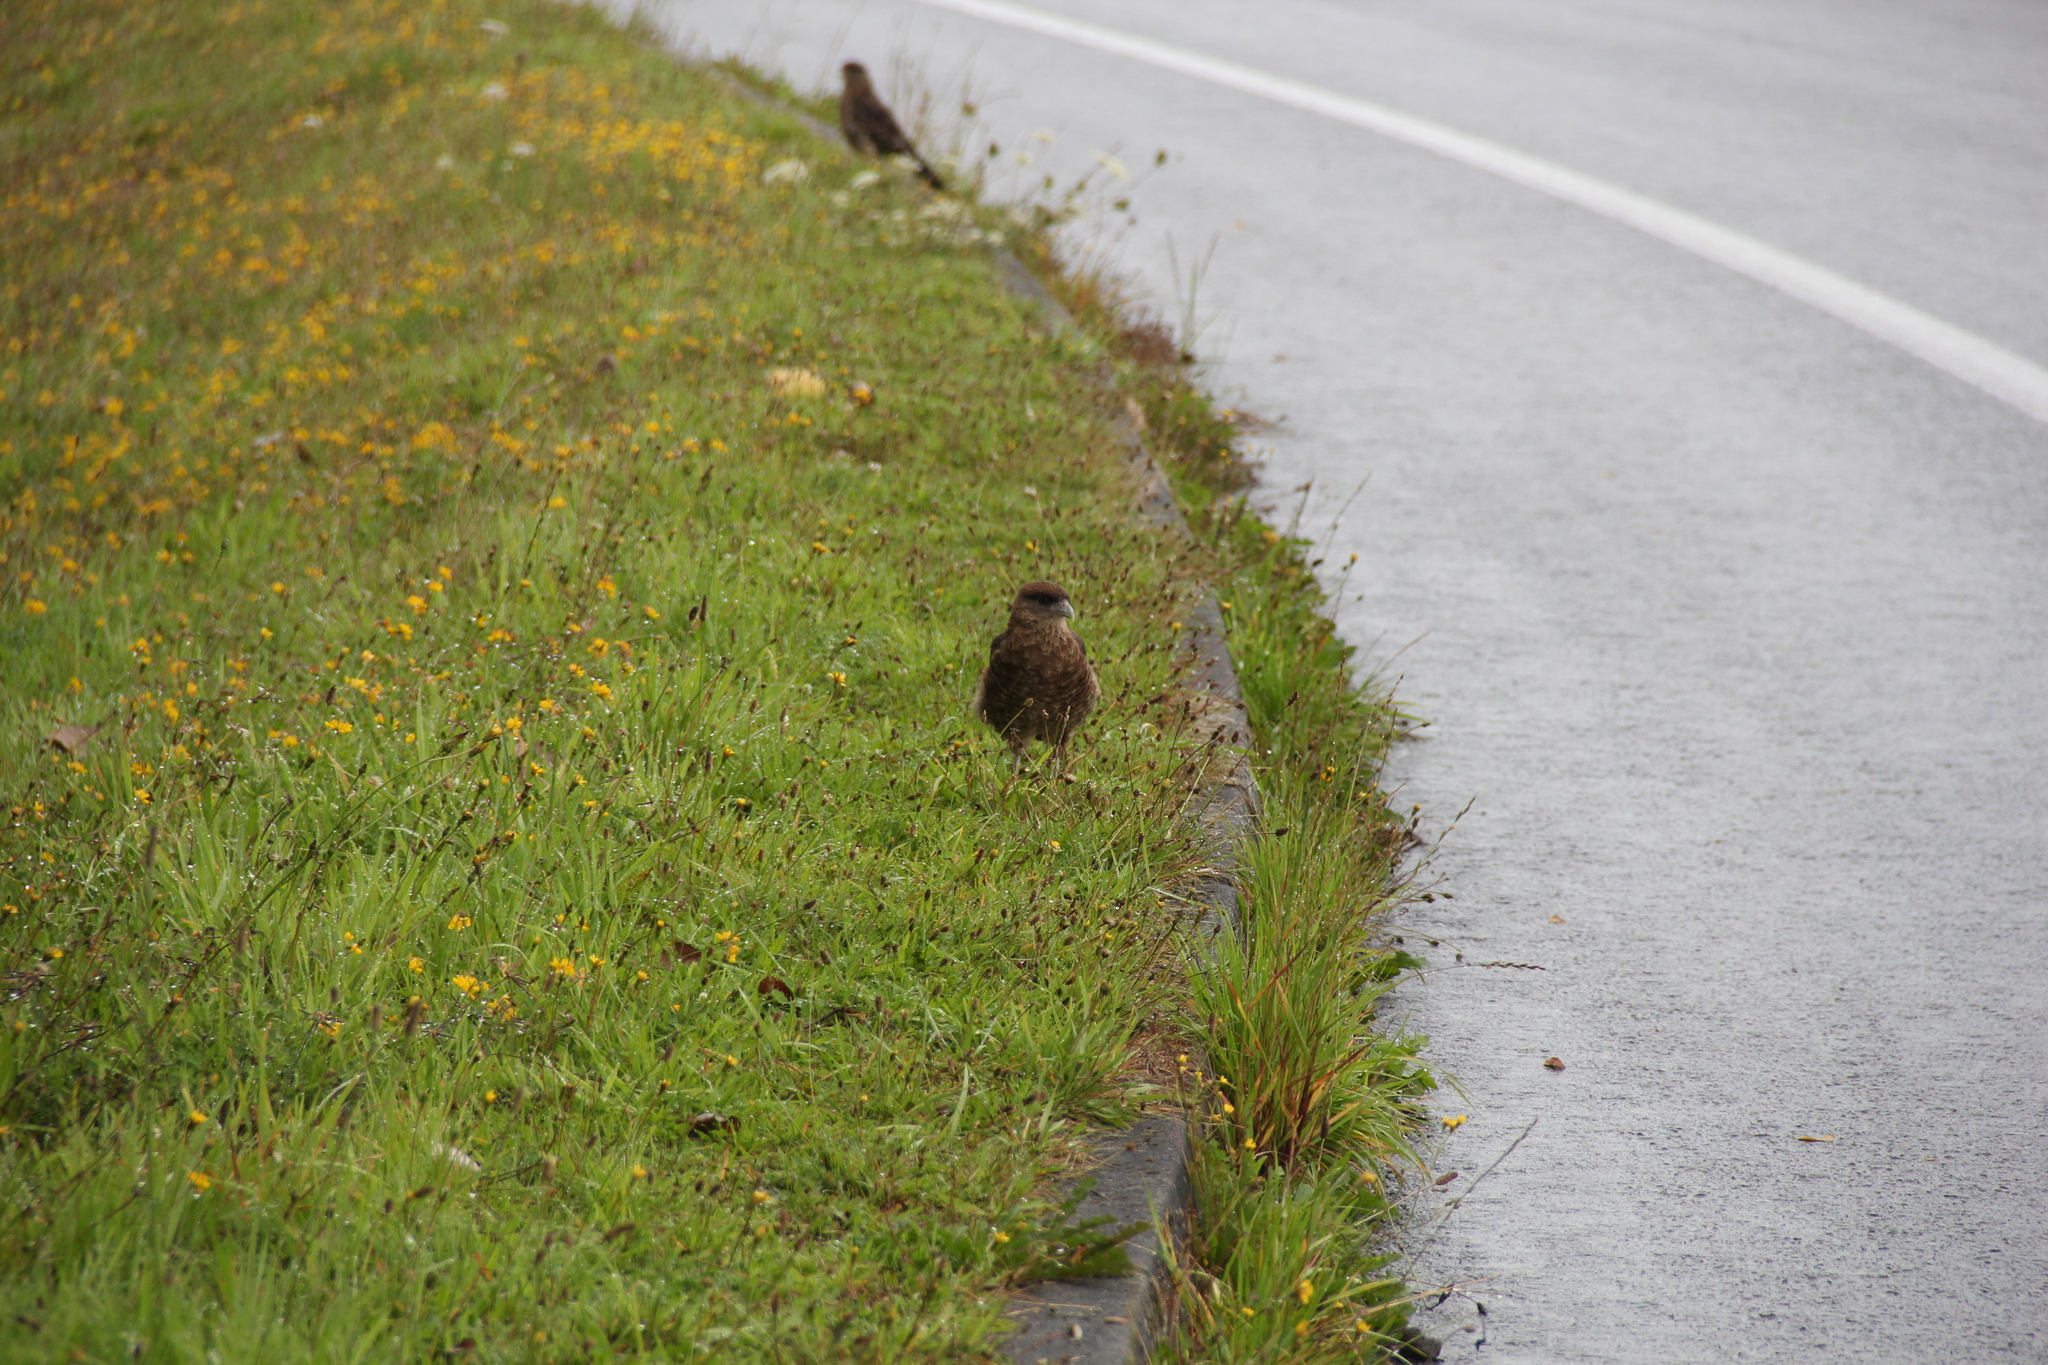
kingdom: Animalia
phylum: Chordata
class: Aves
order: Falconiformes
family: Falconidae
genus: Daptrius
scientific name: Daptrius
